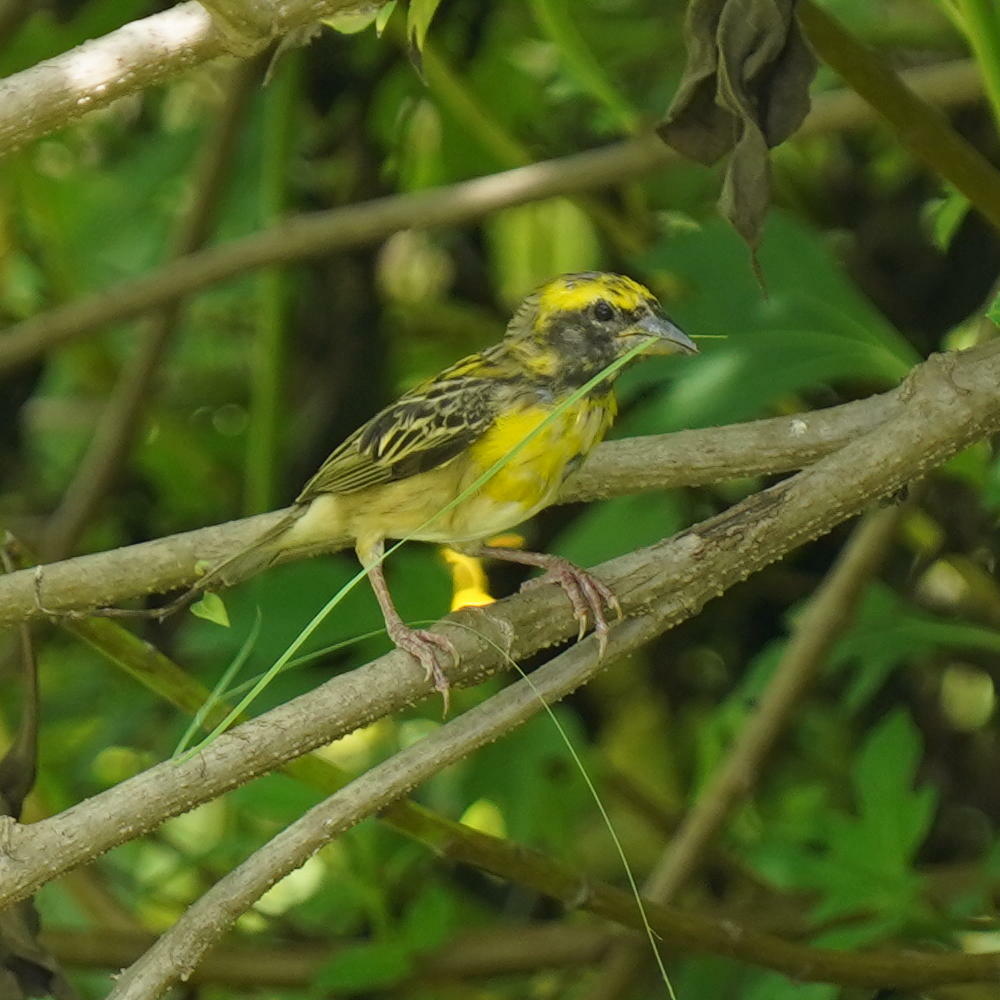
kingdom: Animalia
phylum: Chordata
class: Aves
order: Passeriformes
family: Ploceidae
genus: Ploceus
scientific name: Ploceus philippinus
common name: Baya weaver
